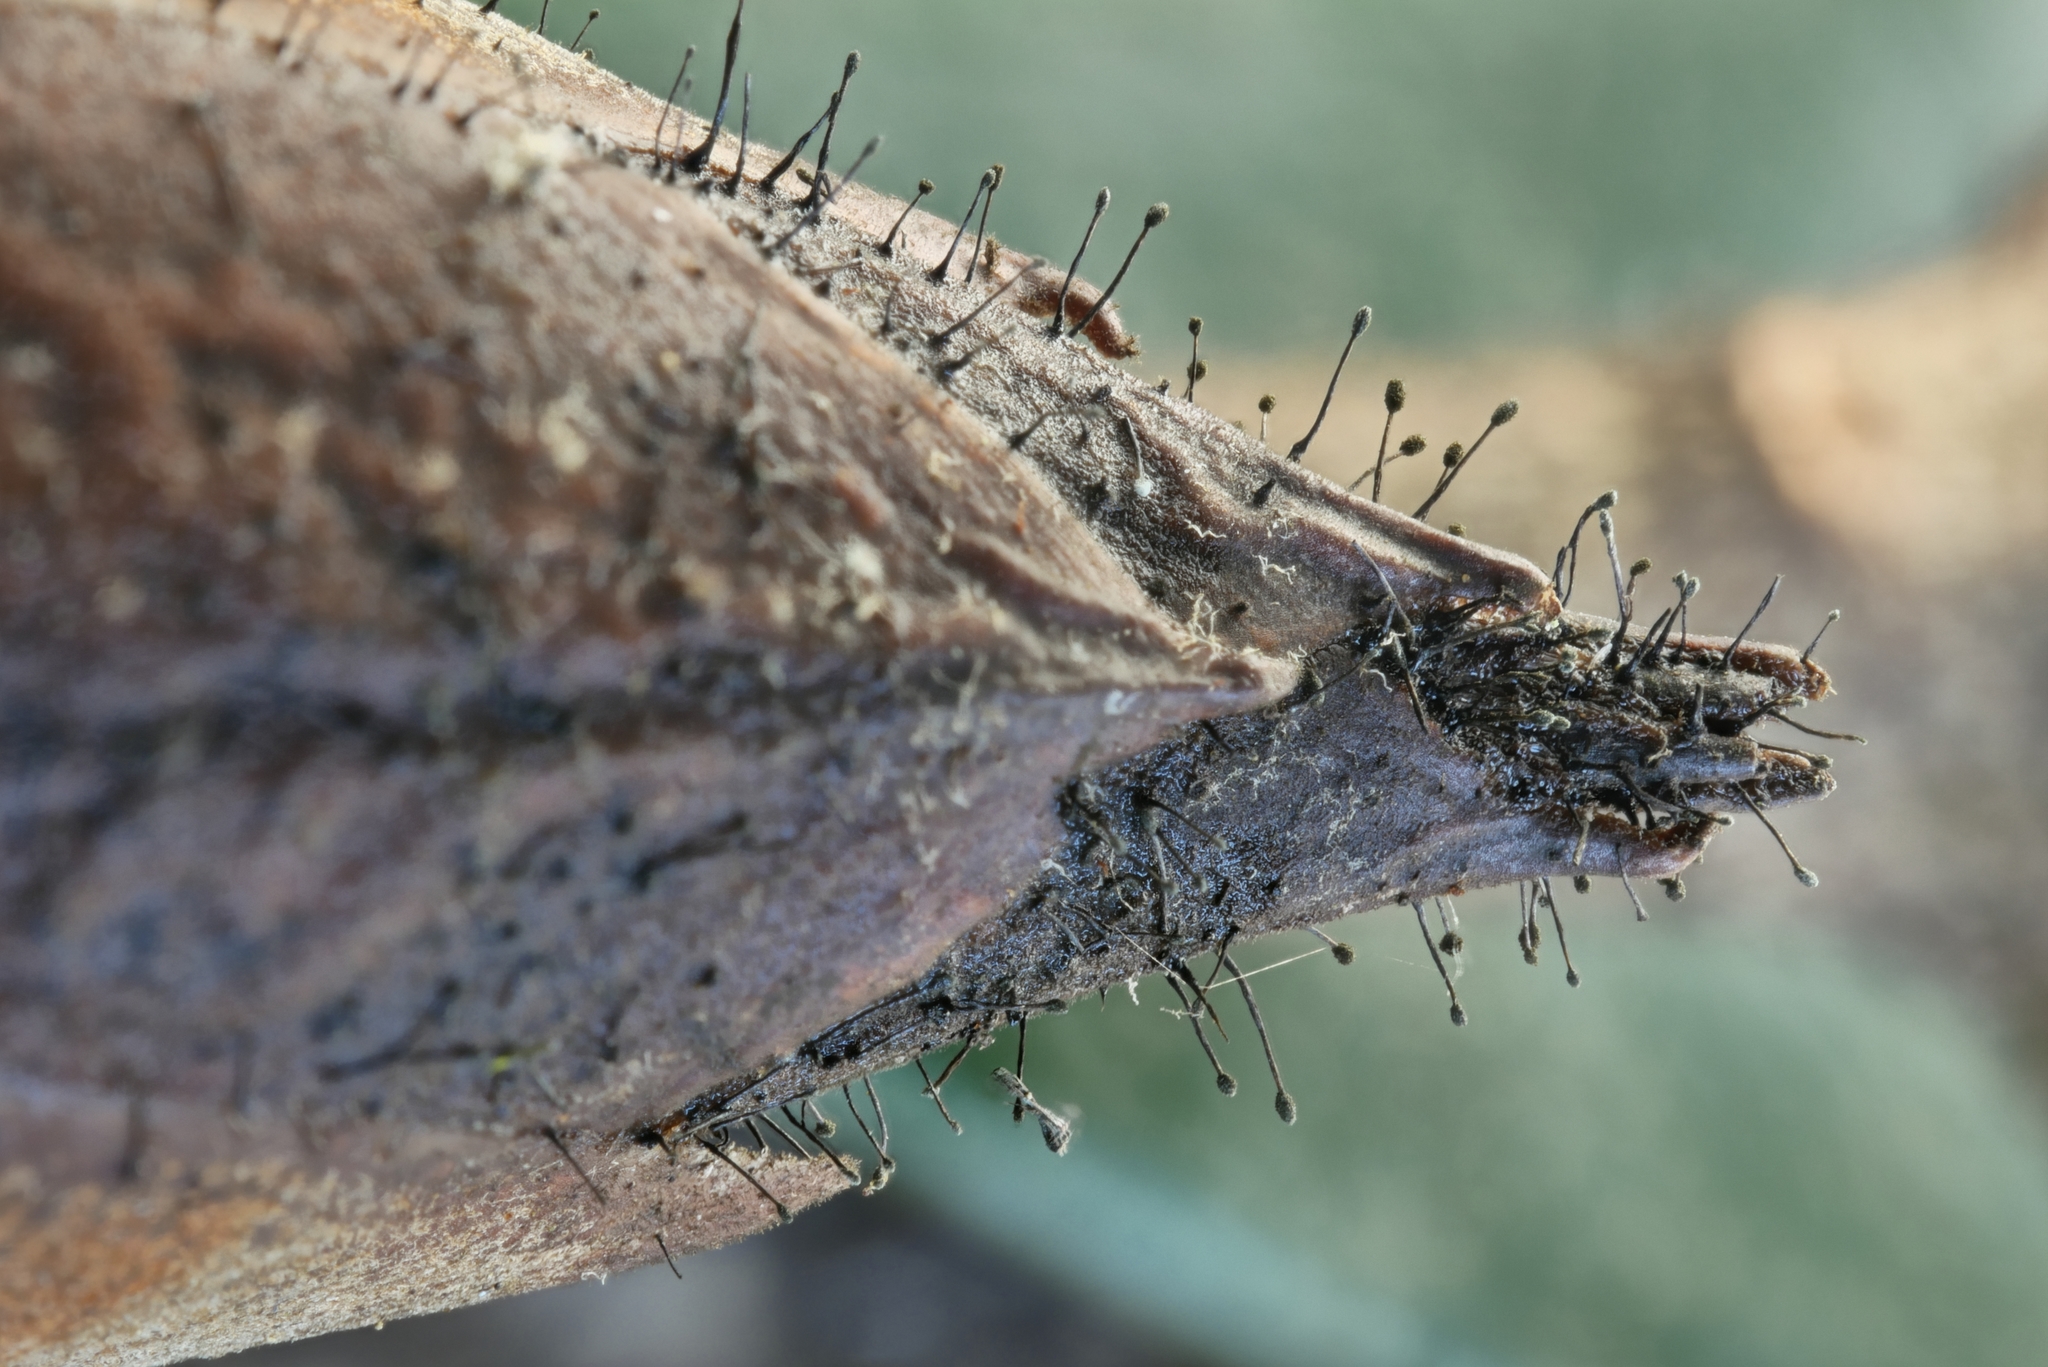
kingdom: Fungi
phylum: Ascomycota
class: Dothideomycetes
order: Pleosporales
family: Melanommataceae
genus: Seifertia
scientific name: Seifertia azaleae
